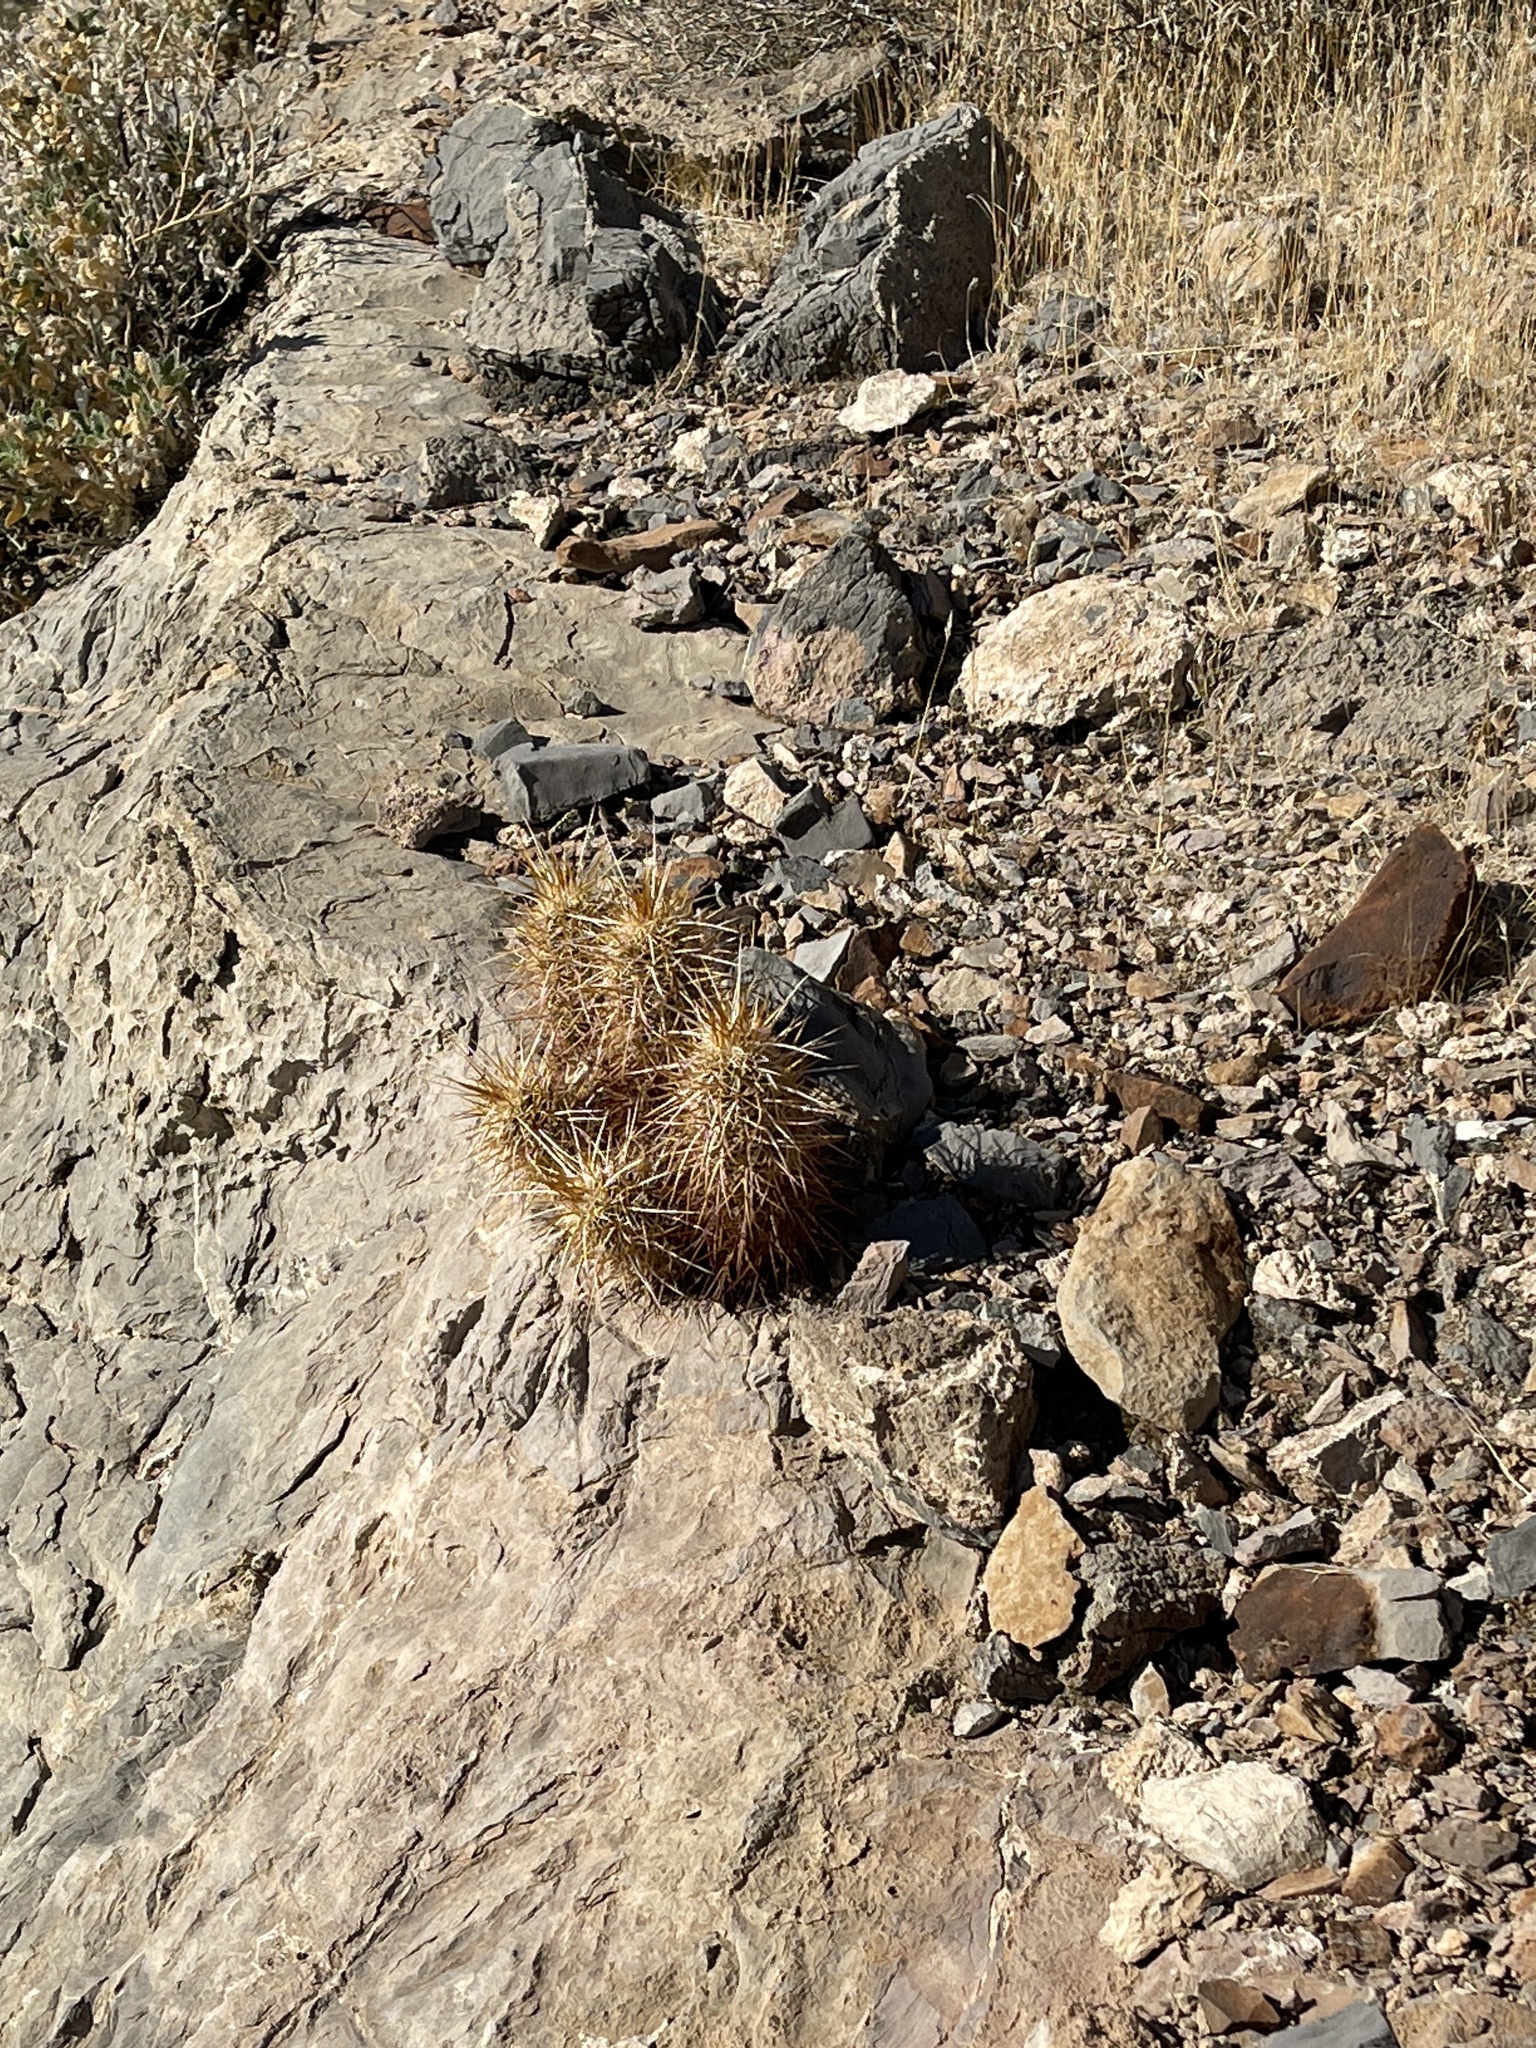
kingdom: Plantae
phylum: Tracheophyta
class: Magnoliopsida
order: Caryophyllales
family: Cactaceae
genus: Echinocereus
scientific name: Echinocereus engelmannii
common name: Engelmann's hedgehog cactus
